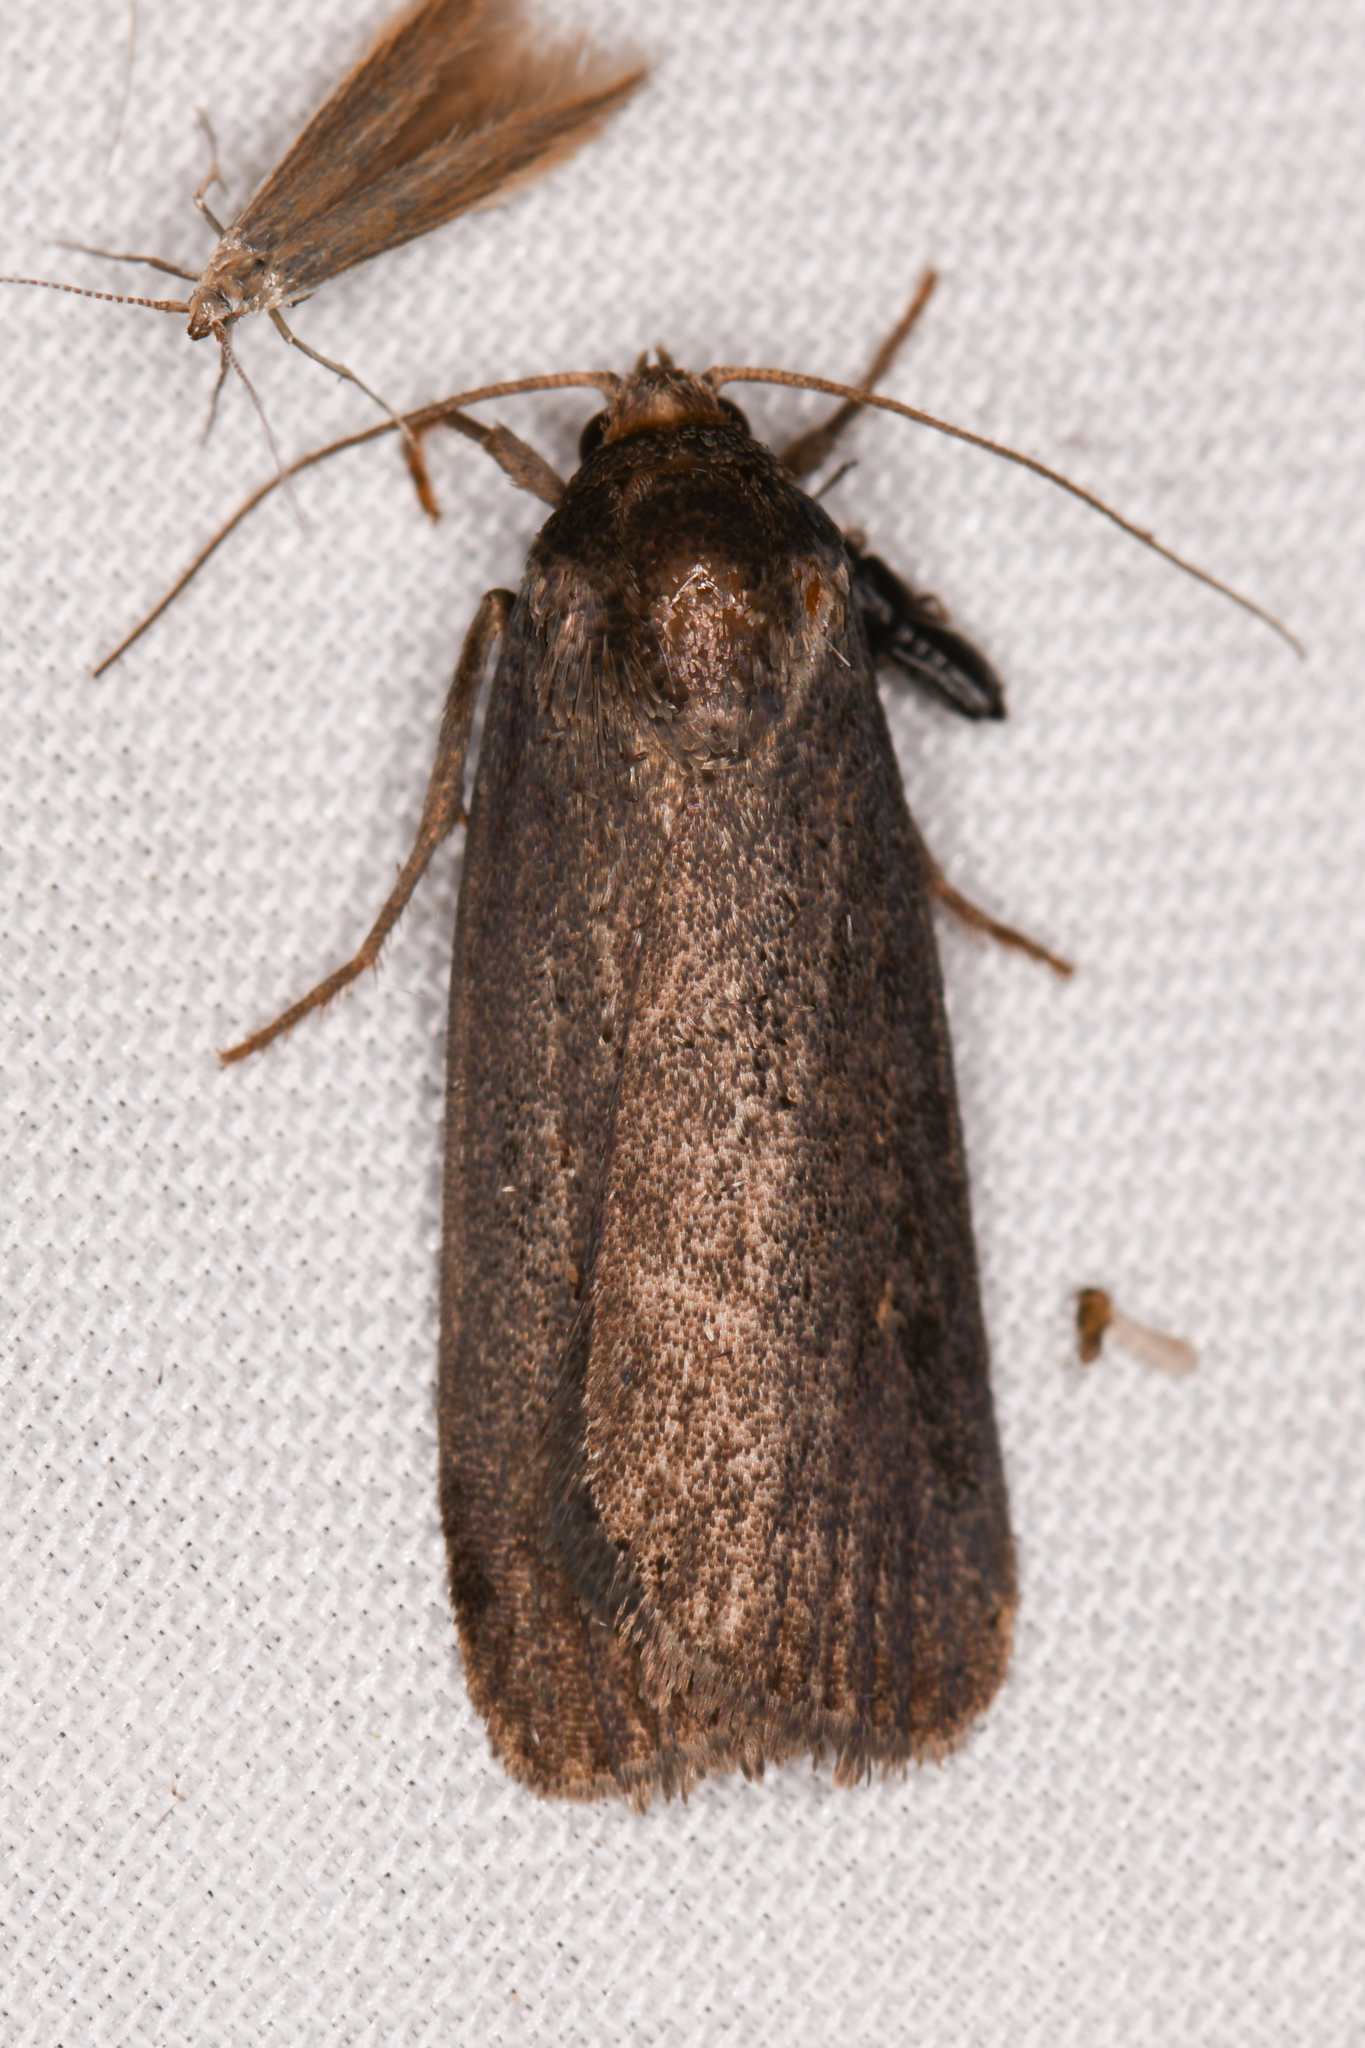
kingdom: Animalia
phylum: Arthropoda
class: Insecta
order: Lepidoptera
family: Noctuidae
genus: Proxenus
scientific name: Proxenus miranda
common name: Miranda moth
